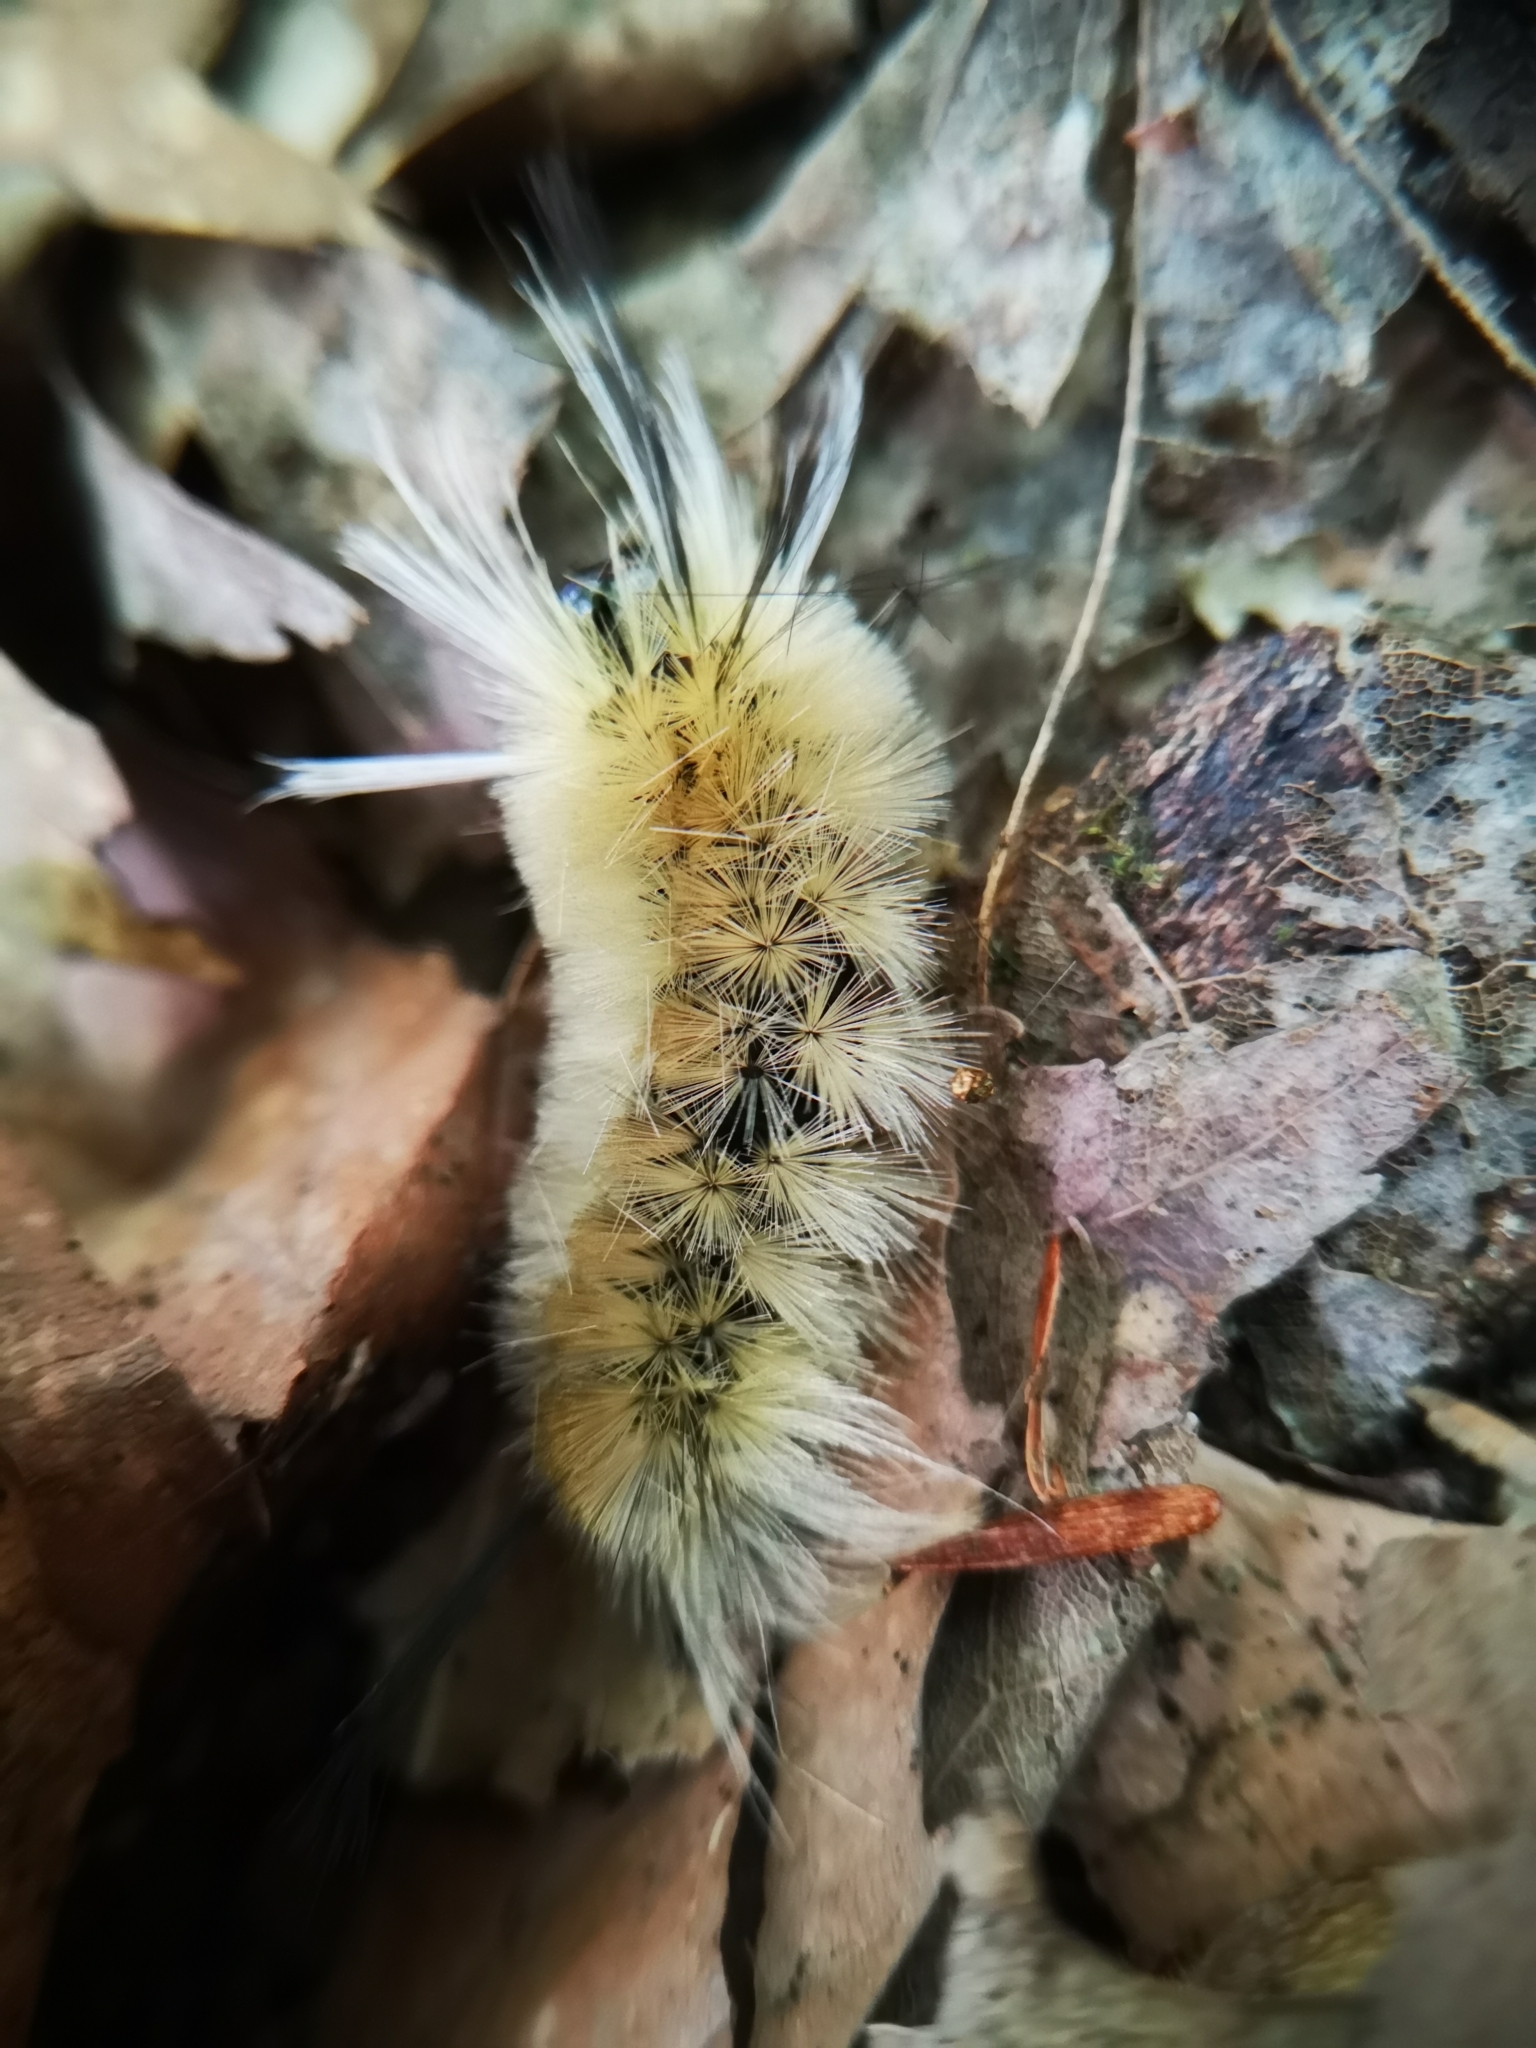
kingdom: Animalia
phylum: Arthropoda
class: Insecta
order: Lepidoptera
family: Erebidae
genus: Halysidota
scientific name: Halysidota tessellaris
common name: Banded tussock moth
